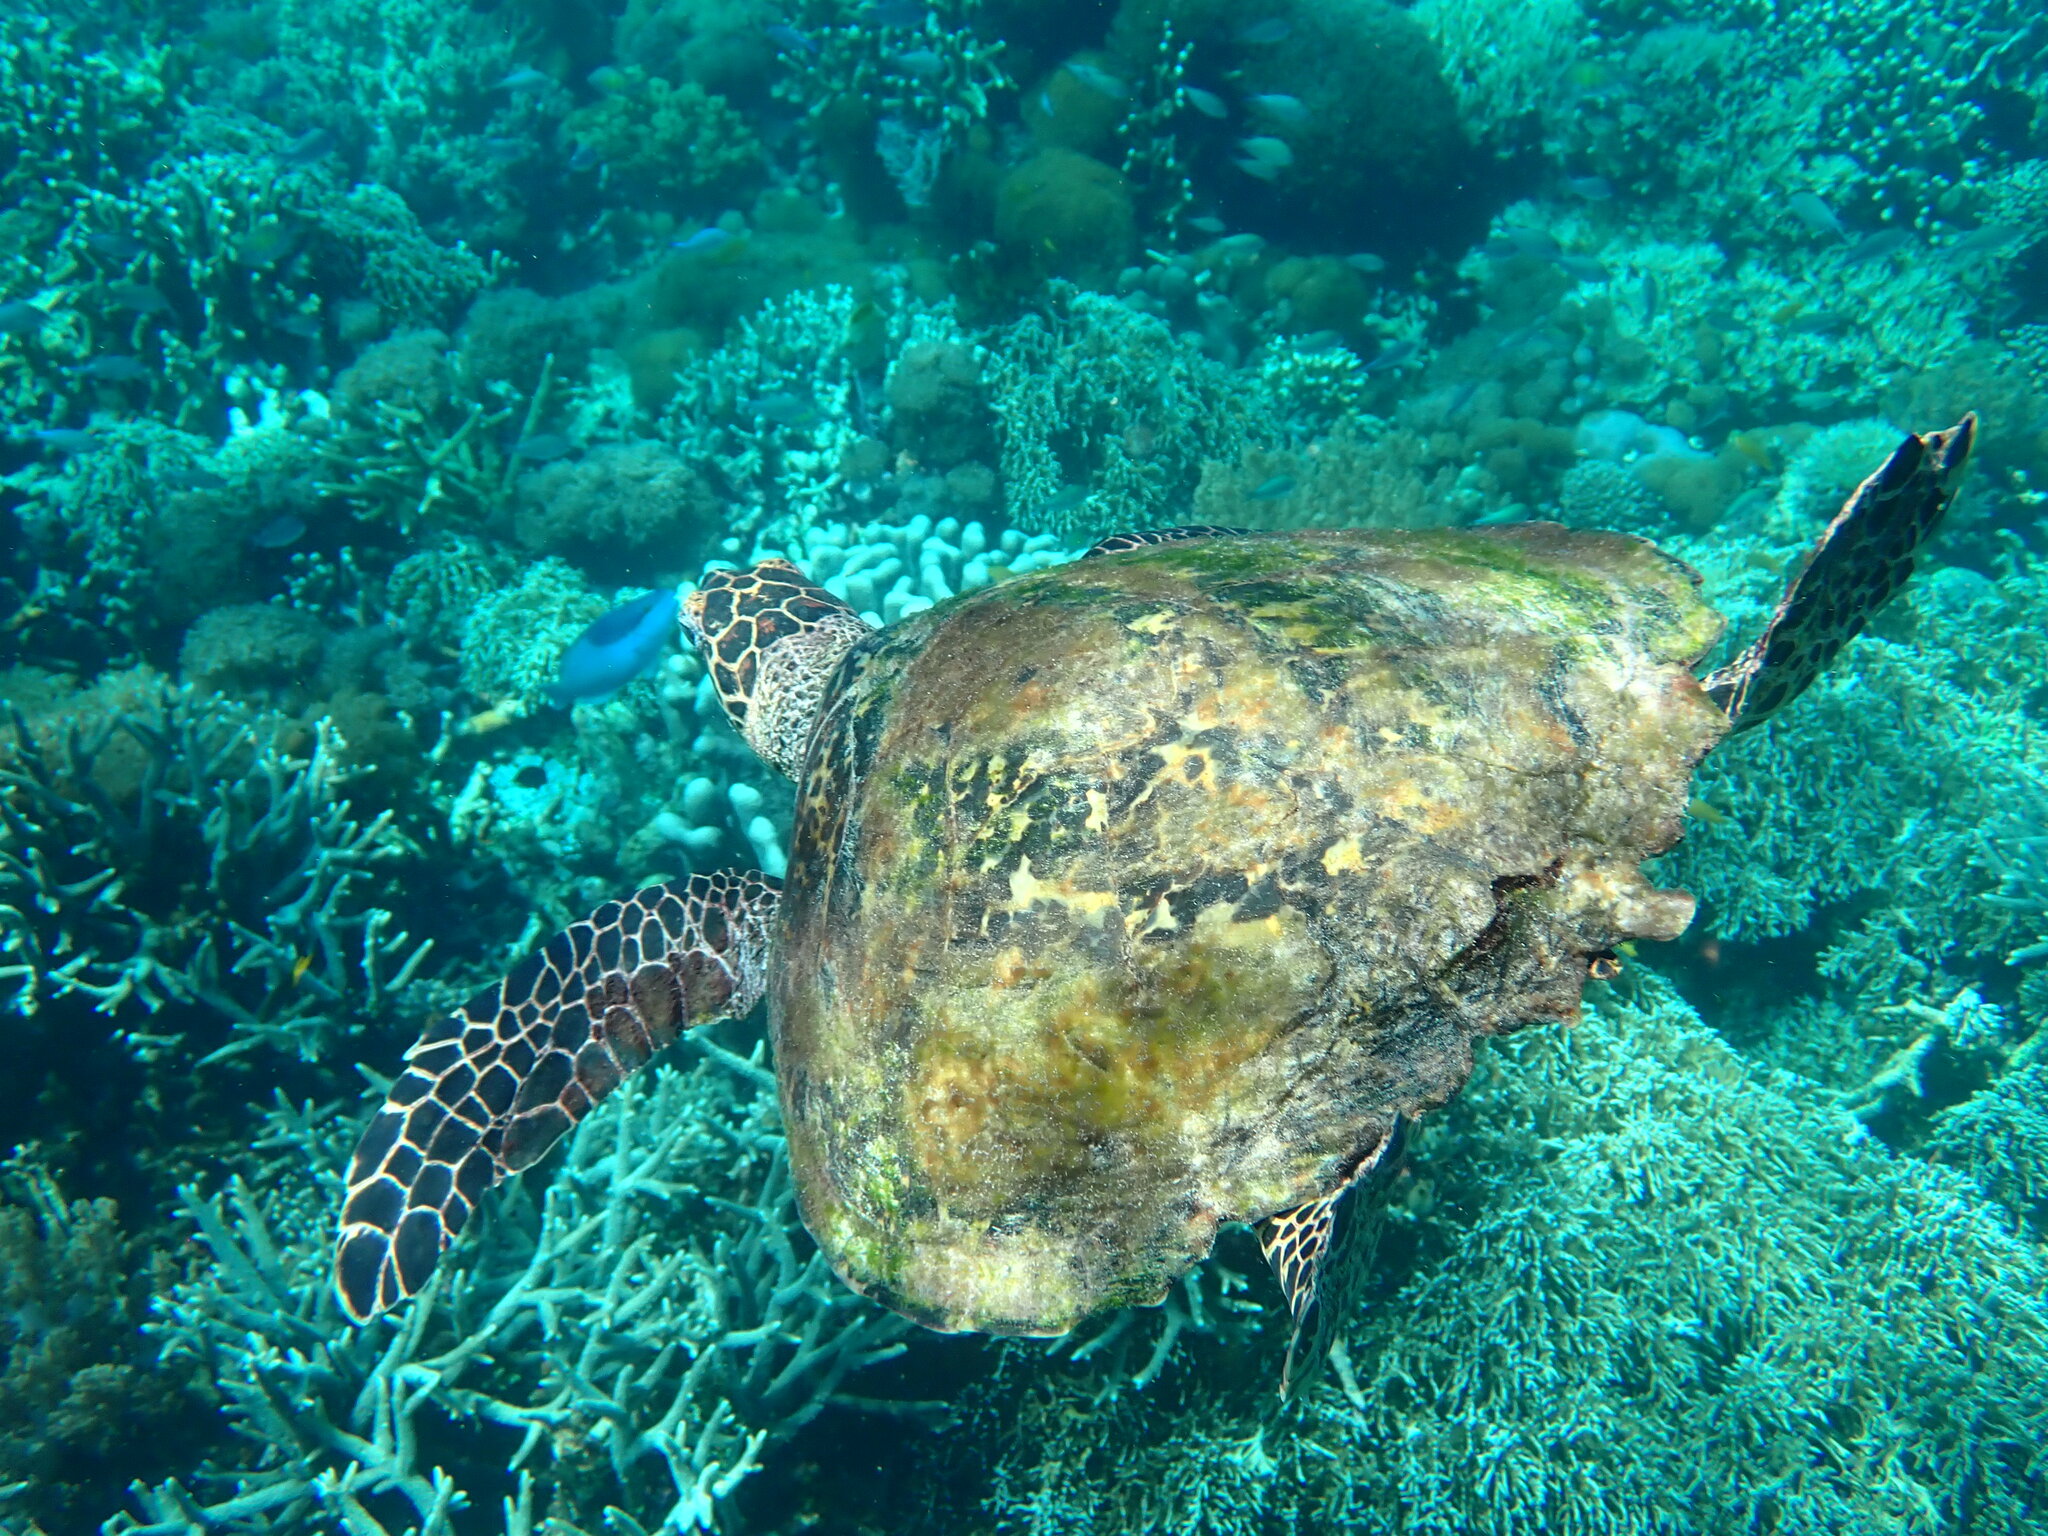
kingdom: Animalia
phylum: Chordata
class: Testudines
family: Cheloniidae
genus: Eretmochelys
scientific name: Eretmochelys imbricata
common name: Hawksbill turtle
